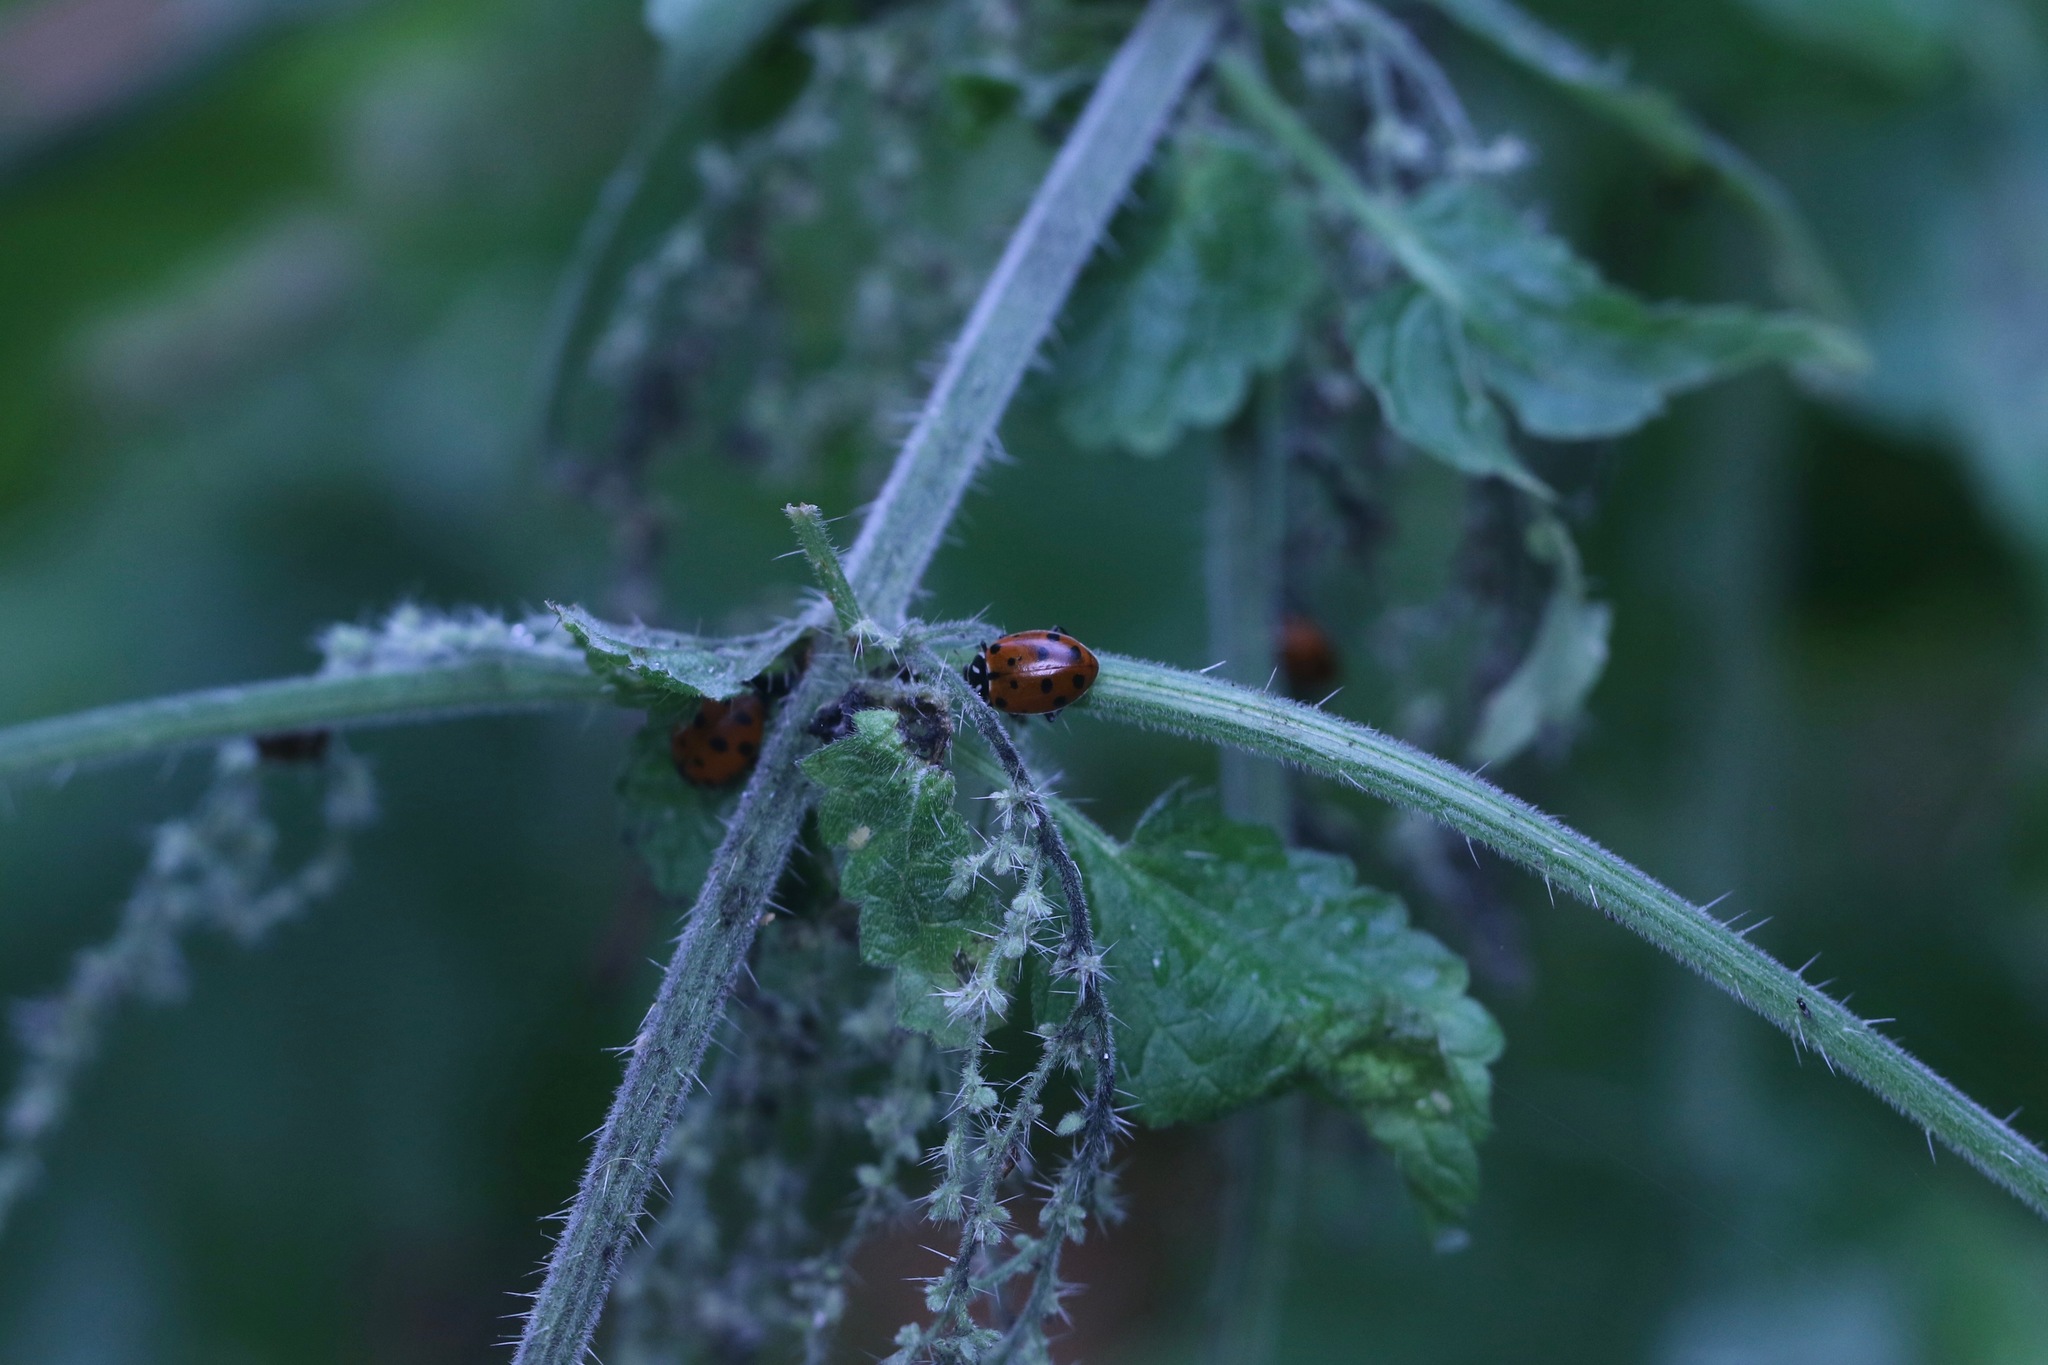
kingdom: Animalia
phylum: Arthropoda
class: Insecta
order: Coleoptera
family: Coccinellidae
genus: Hippodamia
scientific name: Hippodamia convergens
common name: Convergent lady beetle
